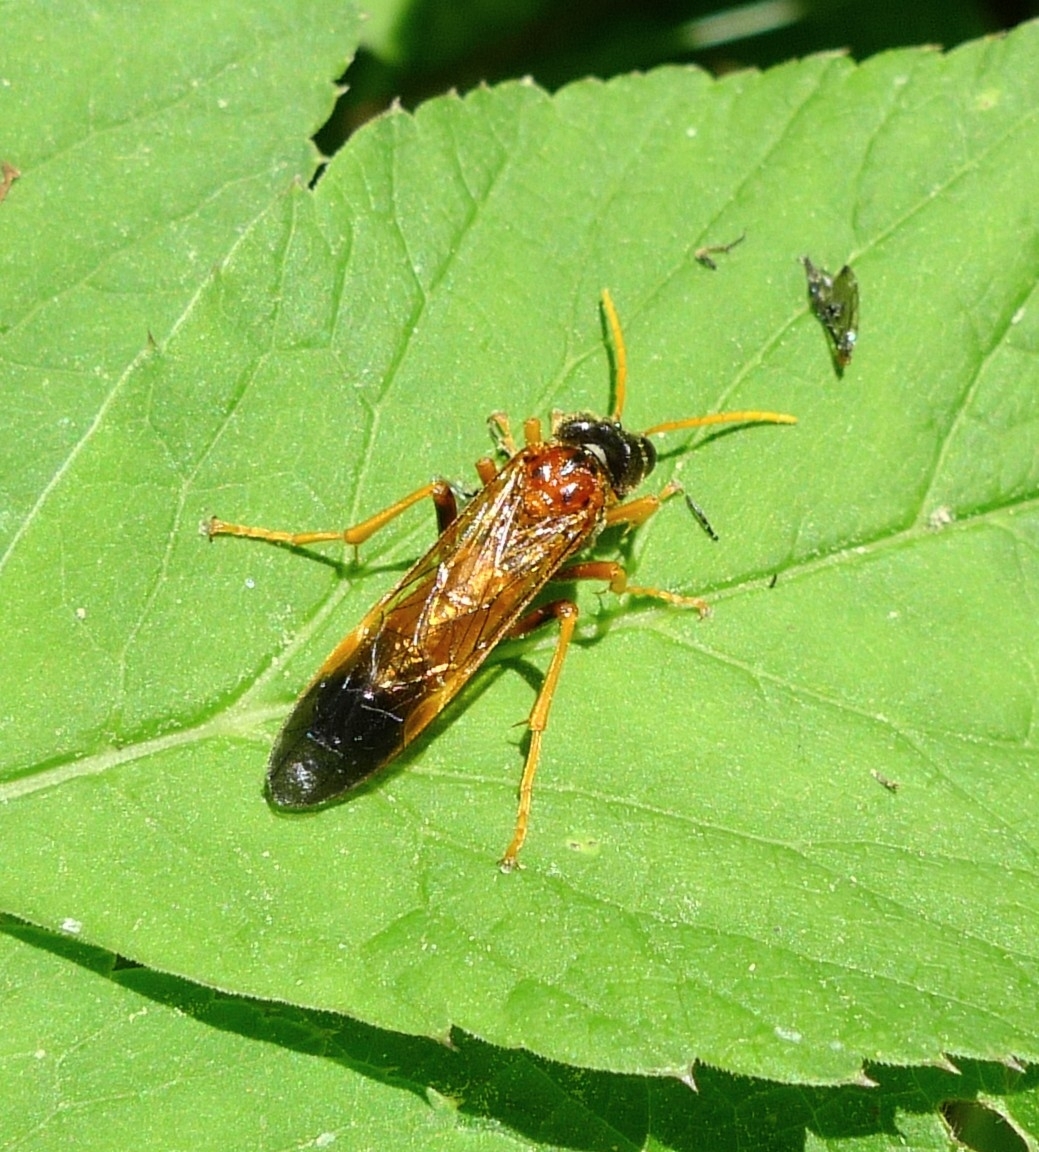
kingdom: Animalia
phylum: Arthropoda
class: Insecta
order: Hymenoptera
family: Tenthredinidae
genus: Tenthredo
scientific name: Tenthredo campestris
